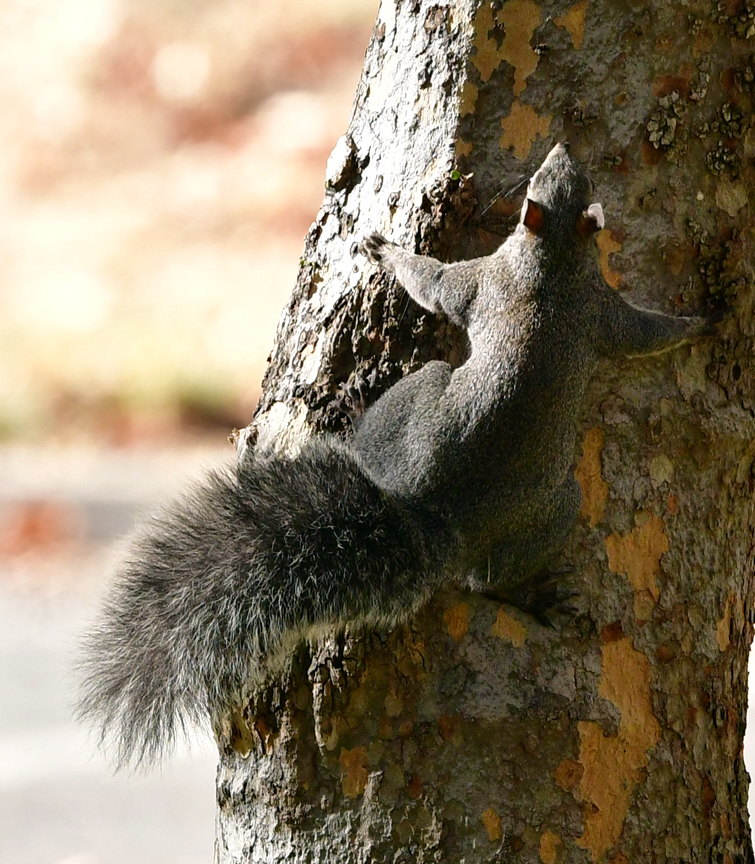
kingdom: Animalia
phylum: Chordata
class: Mammalia
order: Rodentia
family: Sciuridae
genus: Sciurus
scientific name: Sciurus griseus
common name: Western gray squirrel
